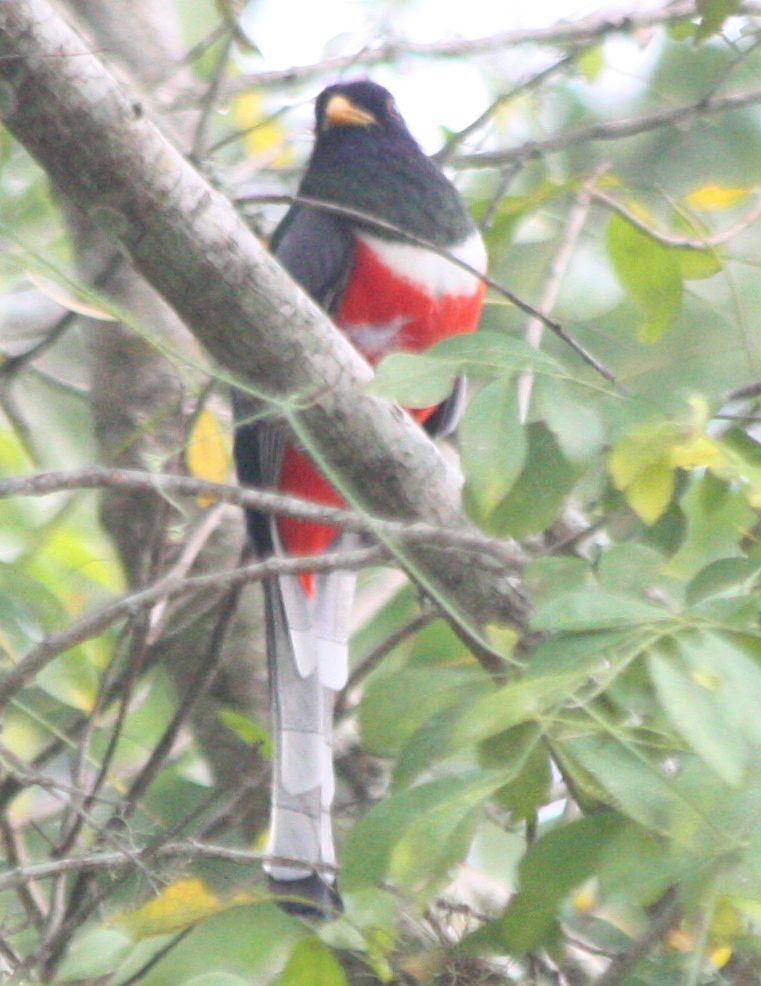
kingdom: Animalia
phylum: Chordata
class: Aves
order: Trogoniformes
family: Trogonidae
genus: Trogon
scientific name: Trogon elegans
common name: Elegant trogon
